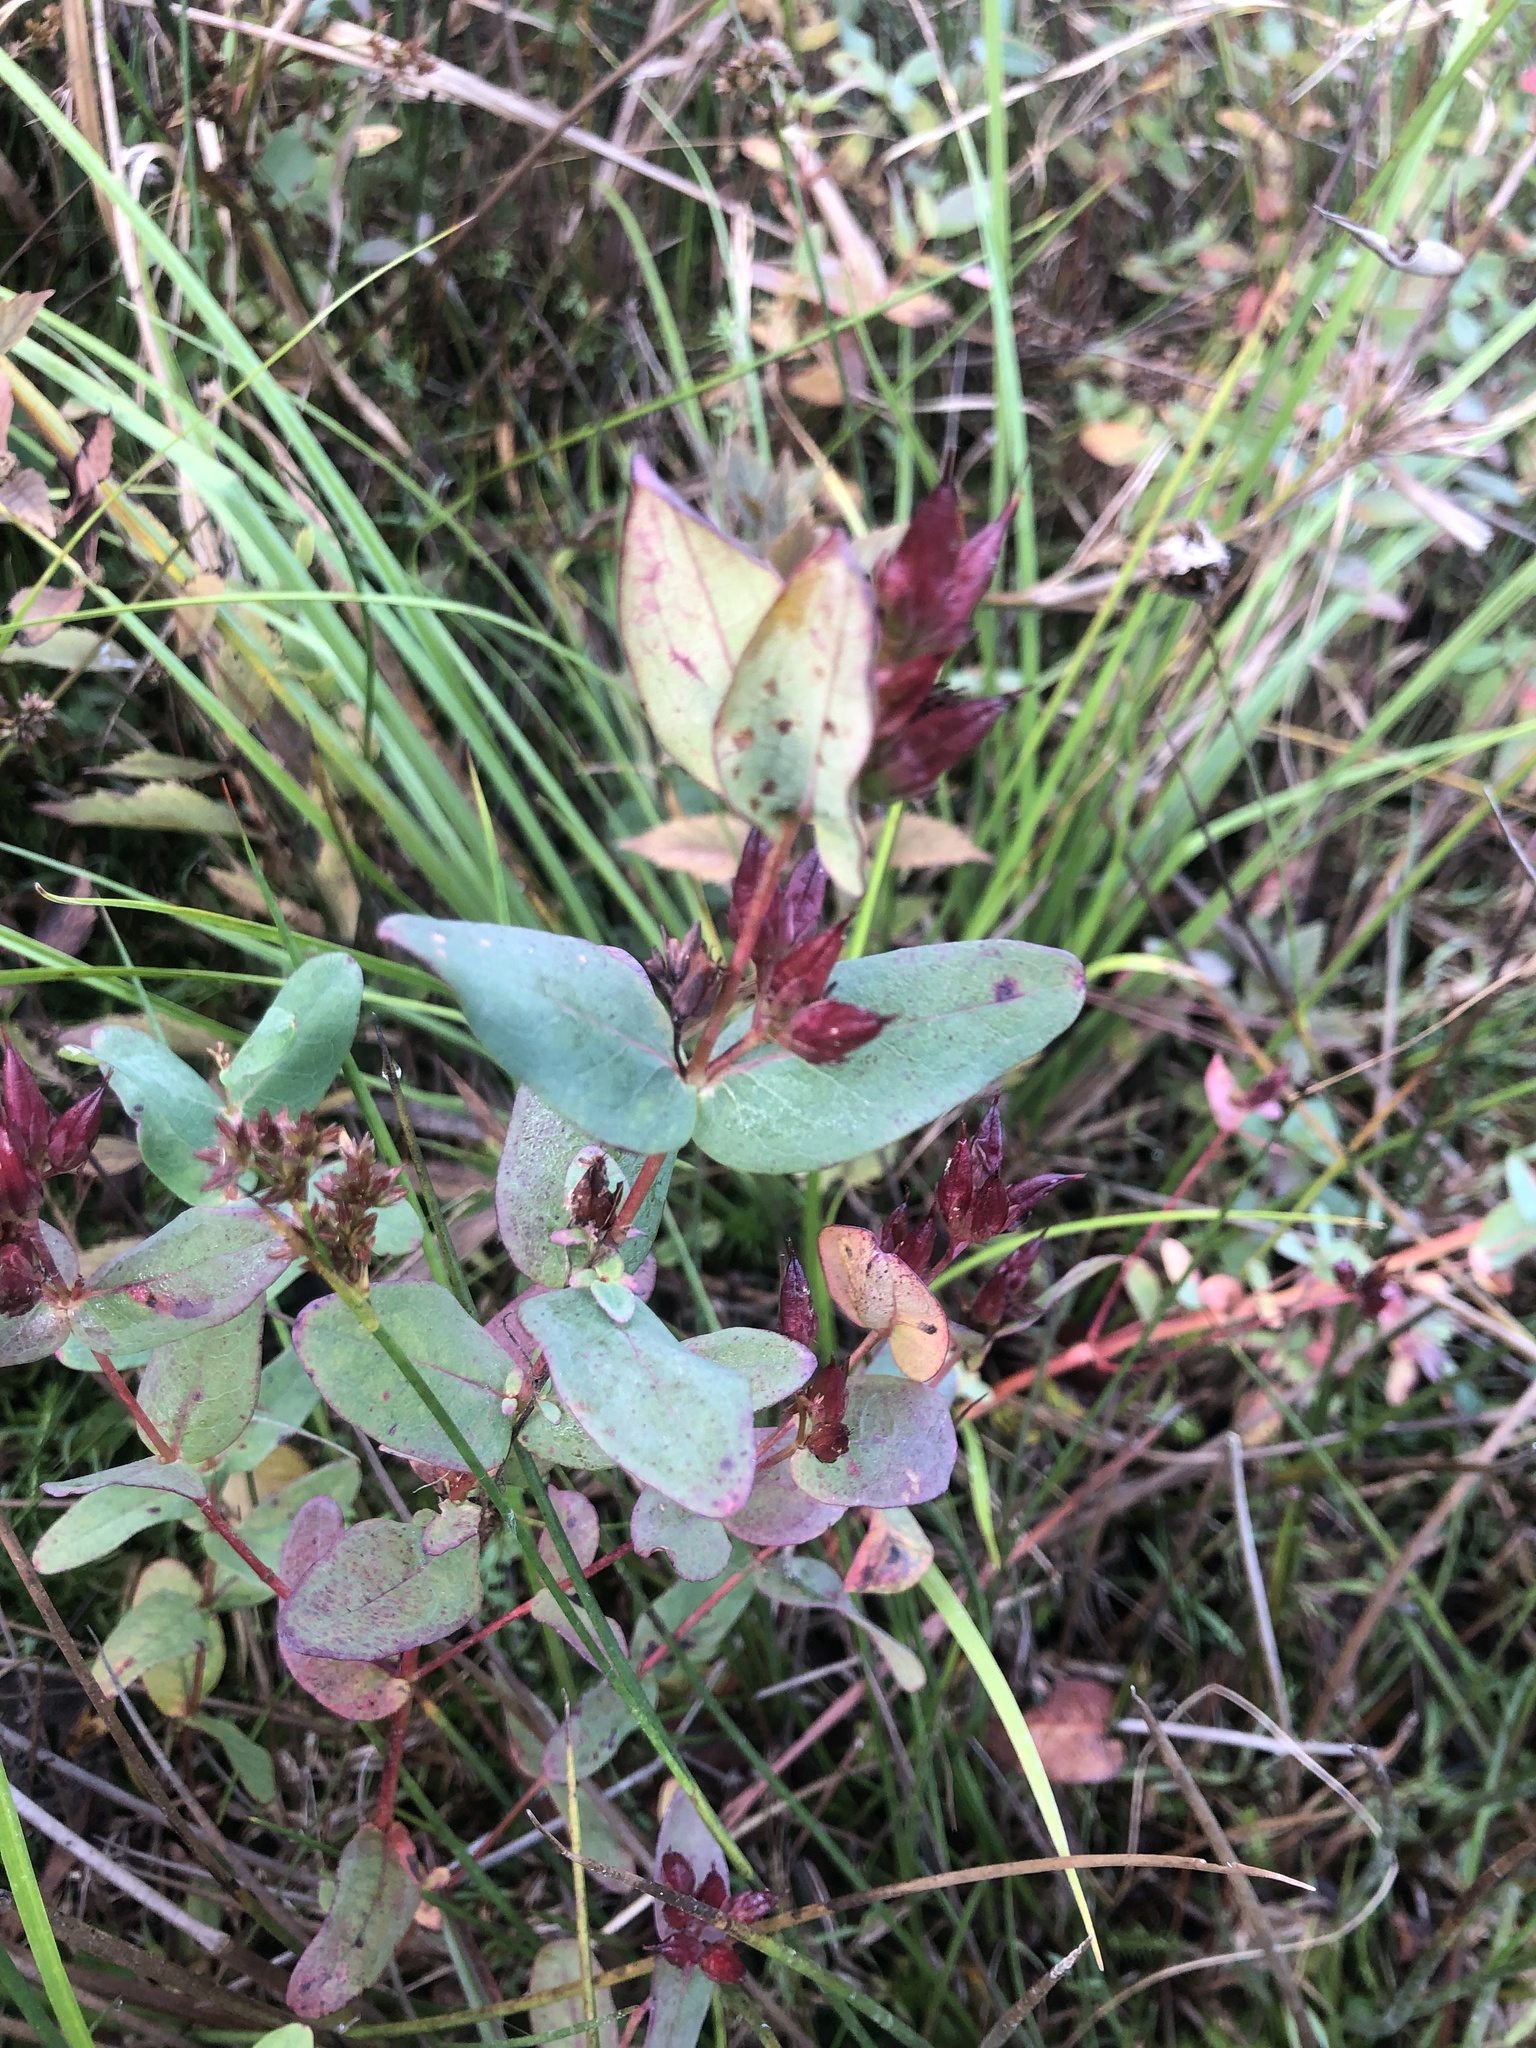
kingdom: Plantae
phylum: Tracheophyta
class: Magnoliopsida
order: Malpighiales
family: Hypericaceae
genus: Triadenum
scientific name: Triadenum virginicum
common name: Marsh st. john's-wort
